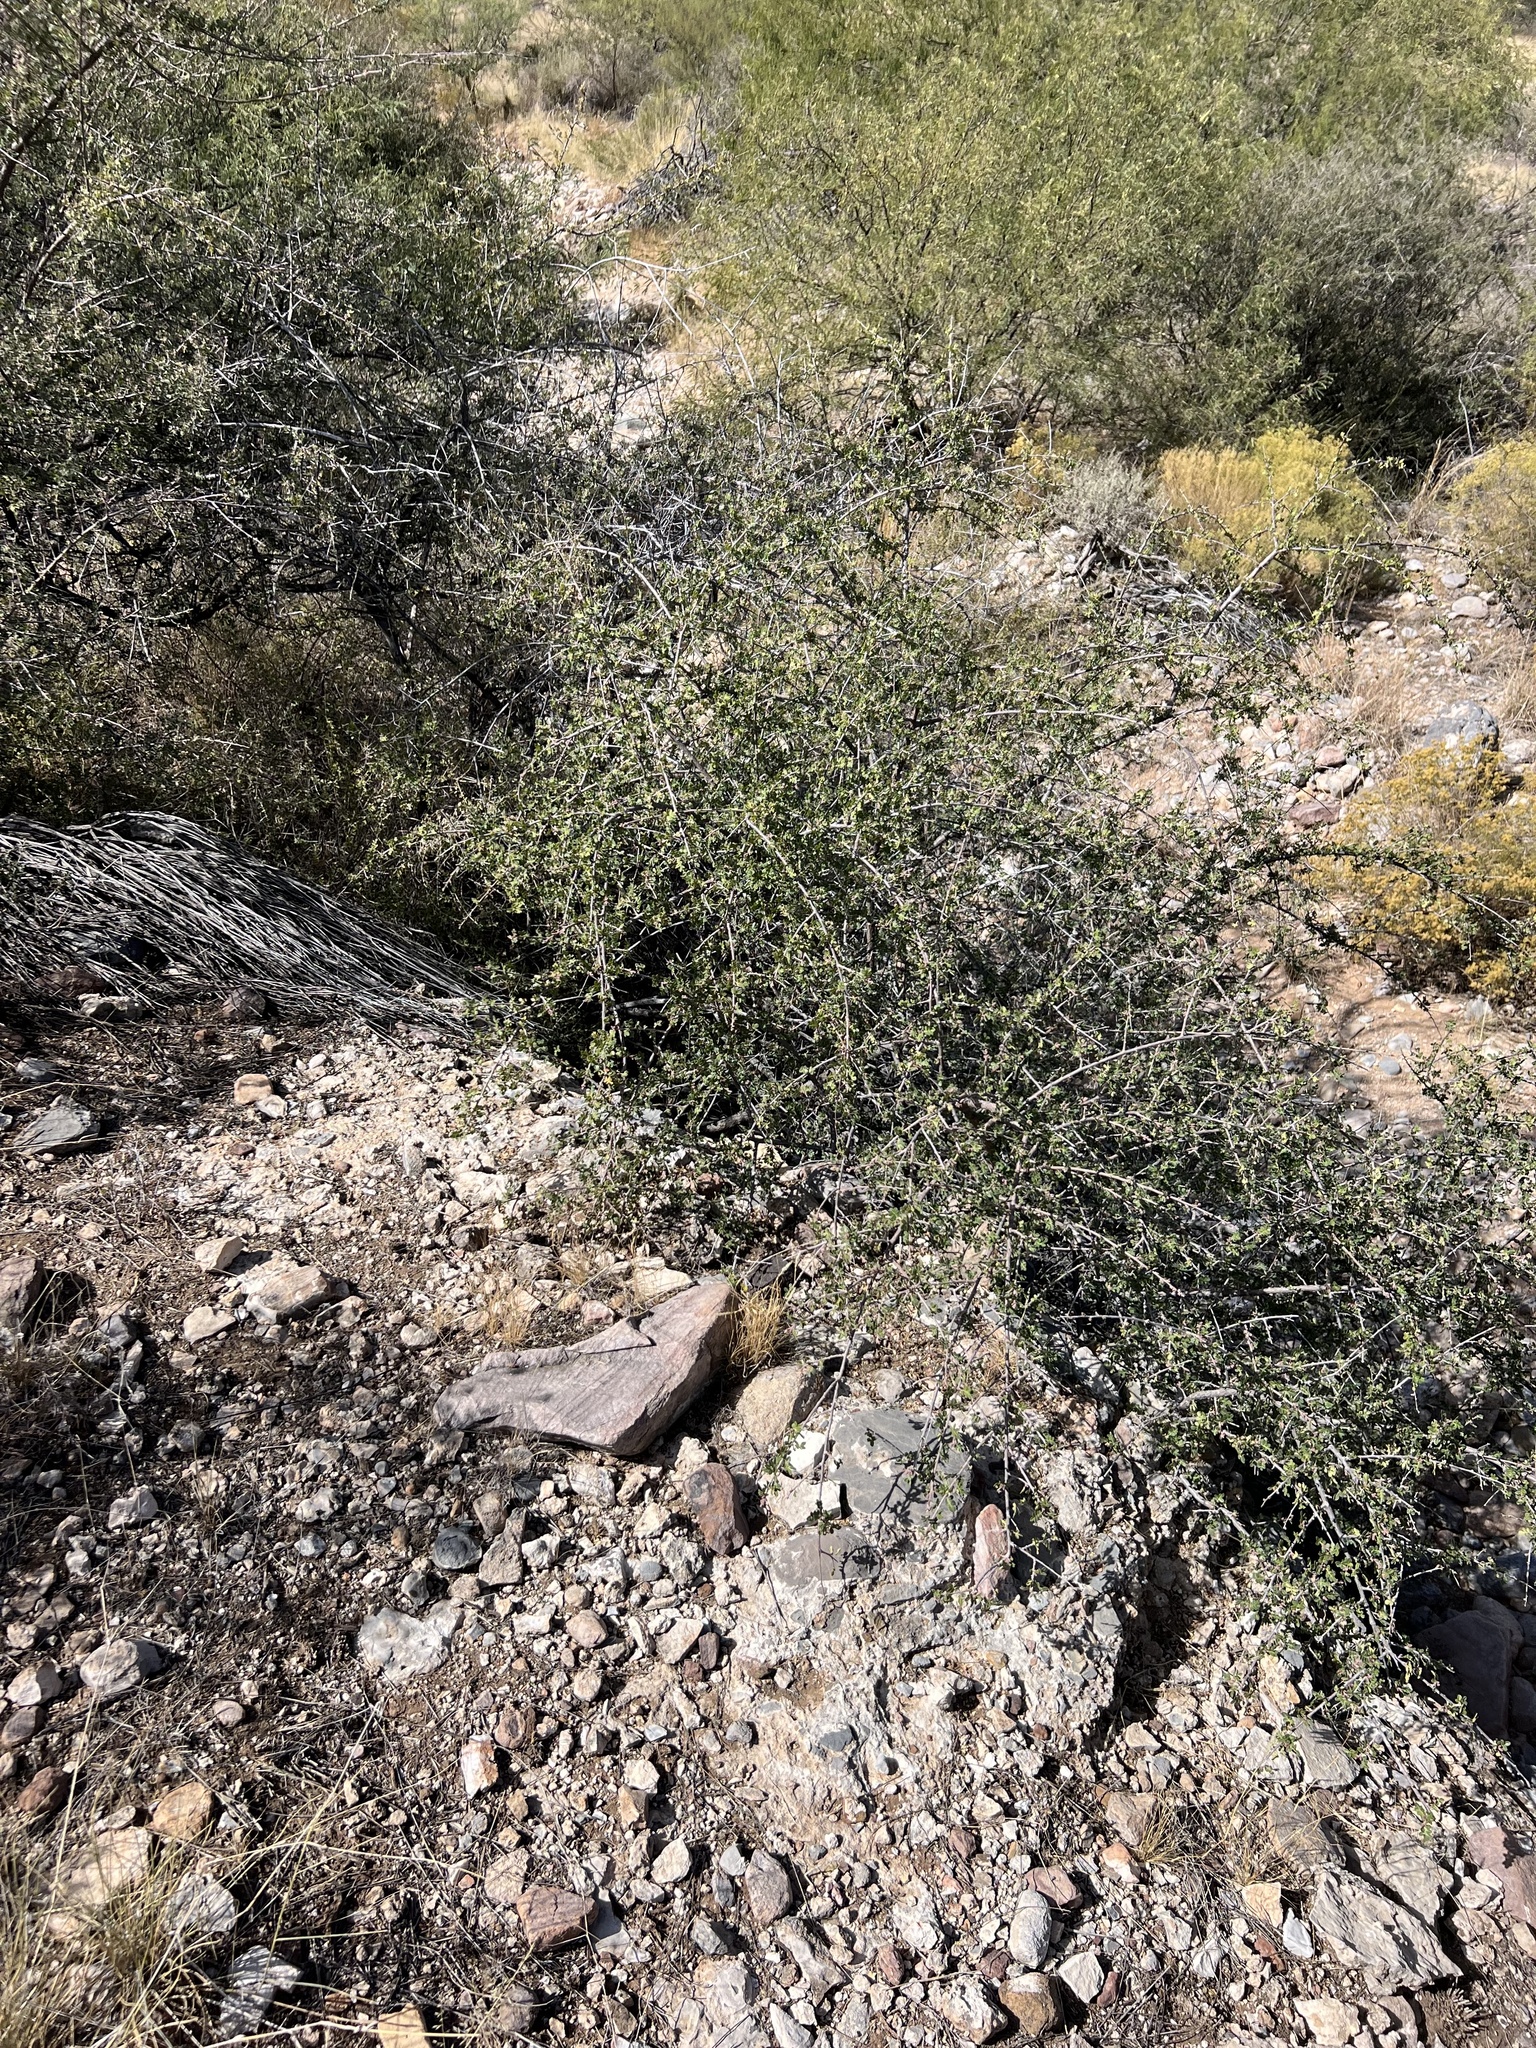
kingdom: Plantae
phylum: Tracheophyta
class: Magnoliopsida
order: Sapindales
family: Anacardiaceae
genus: Rhus
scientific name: Rhus microphylla
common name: Desert sumac
